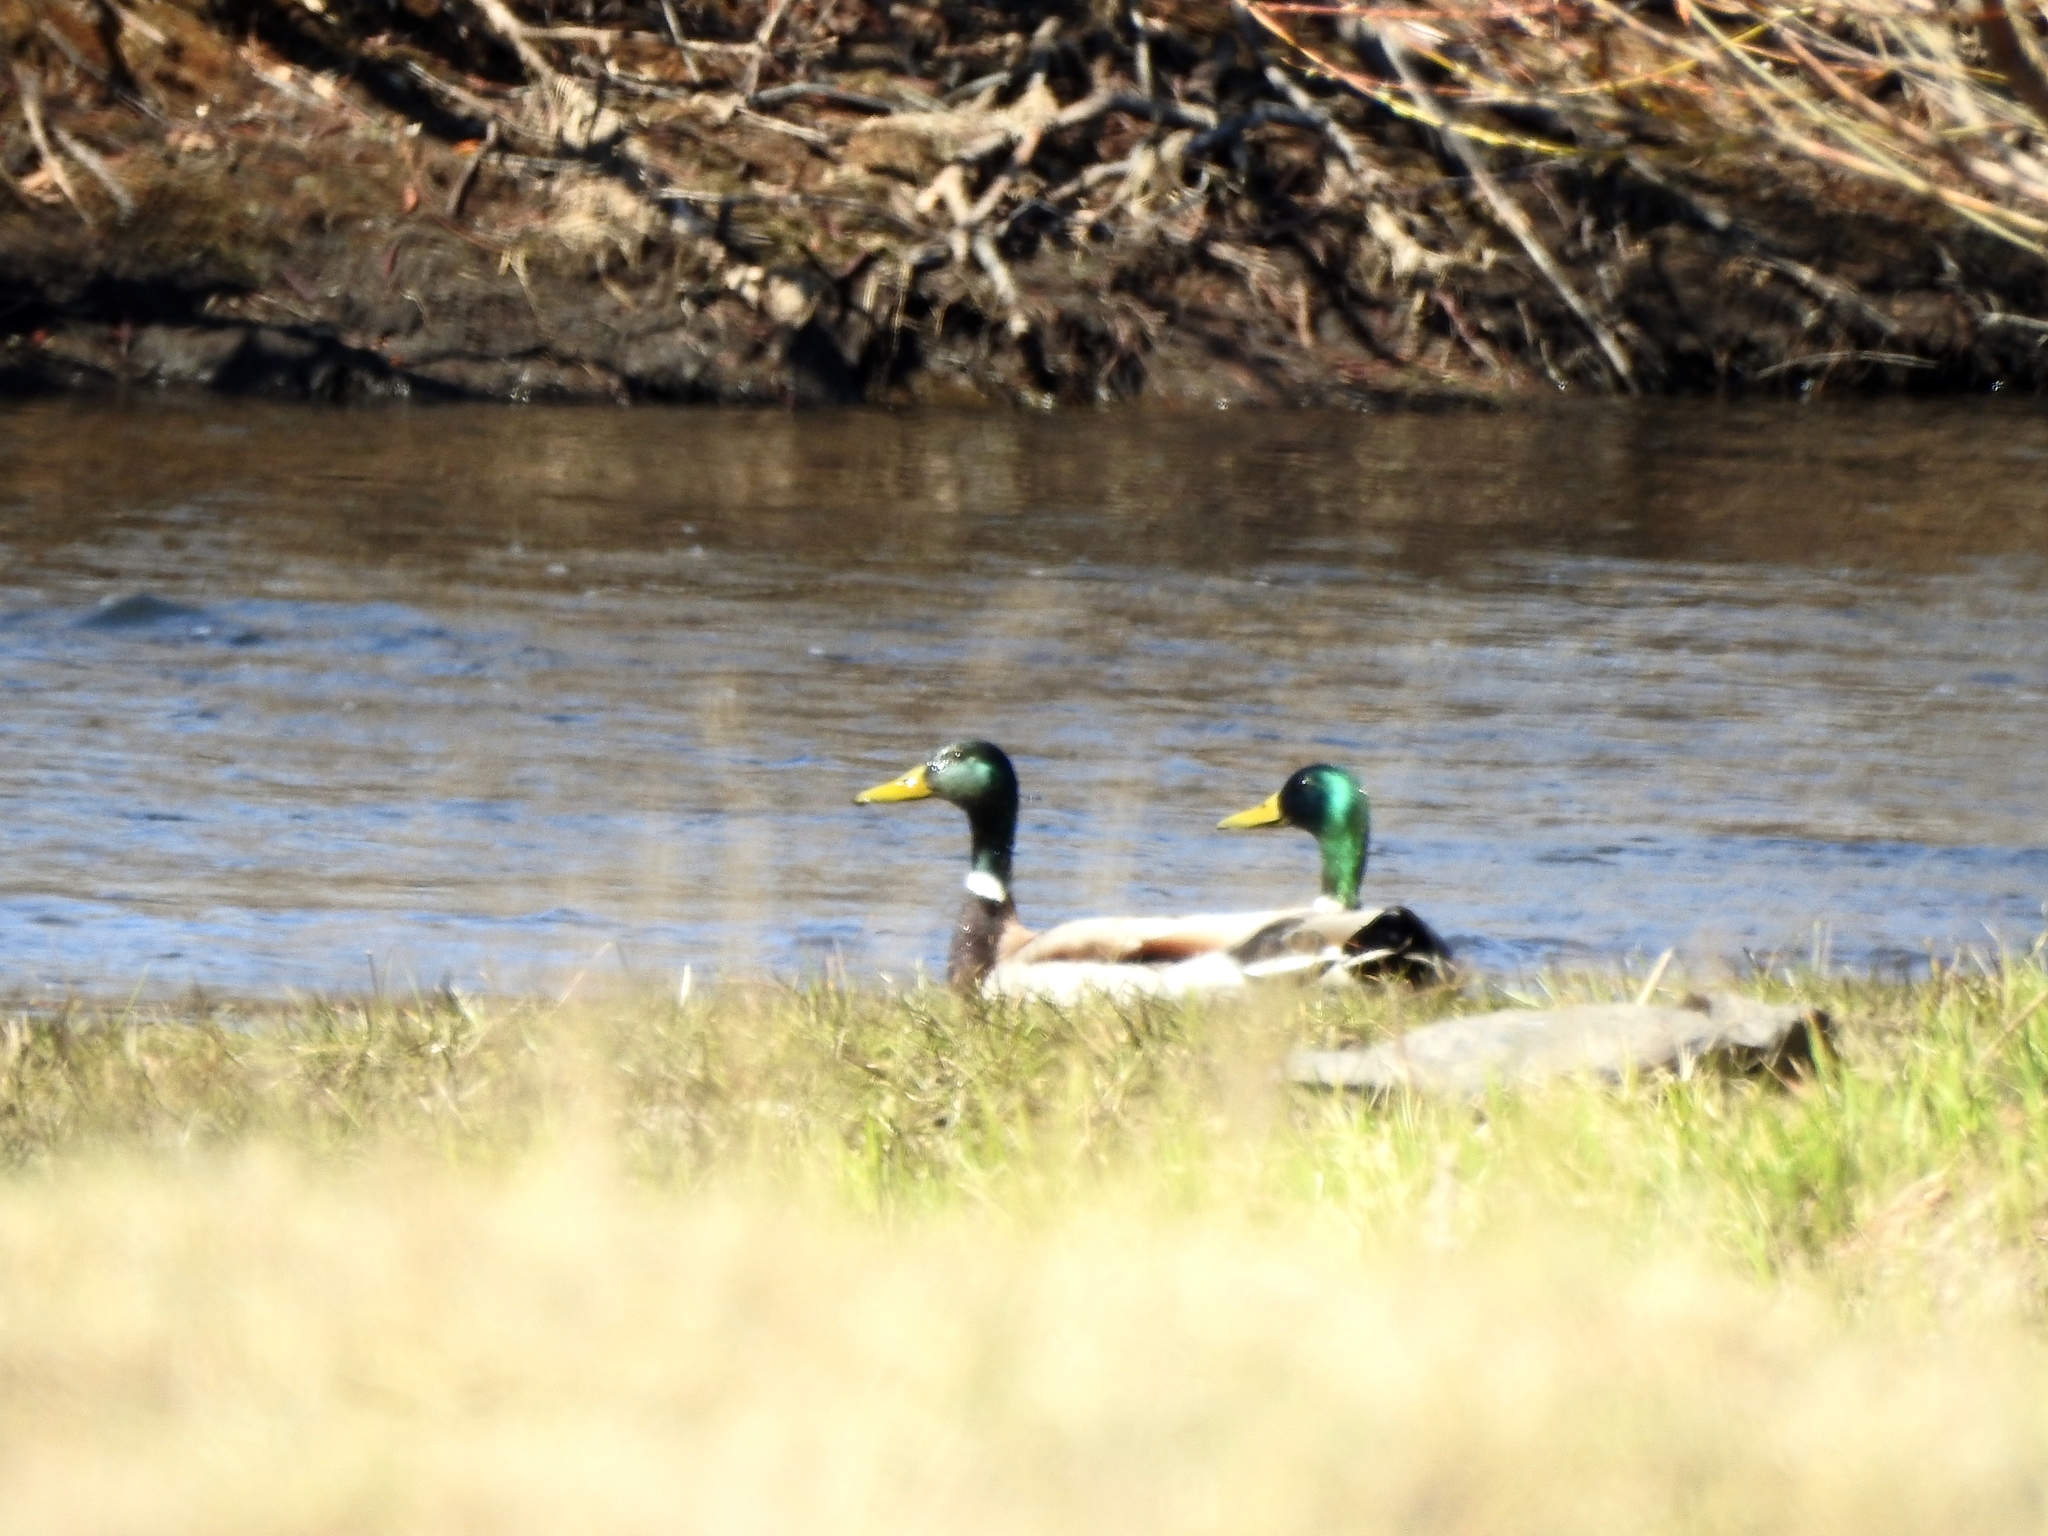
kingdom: Animalia
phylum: Chordata
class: Aves
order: Anseriformes
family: Anatidae
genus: Anas
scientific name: Anas platyrhynchos
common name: Mallard
